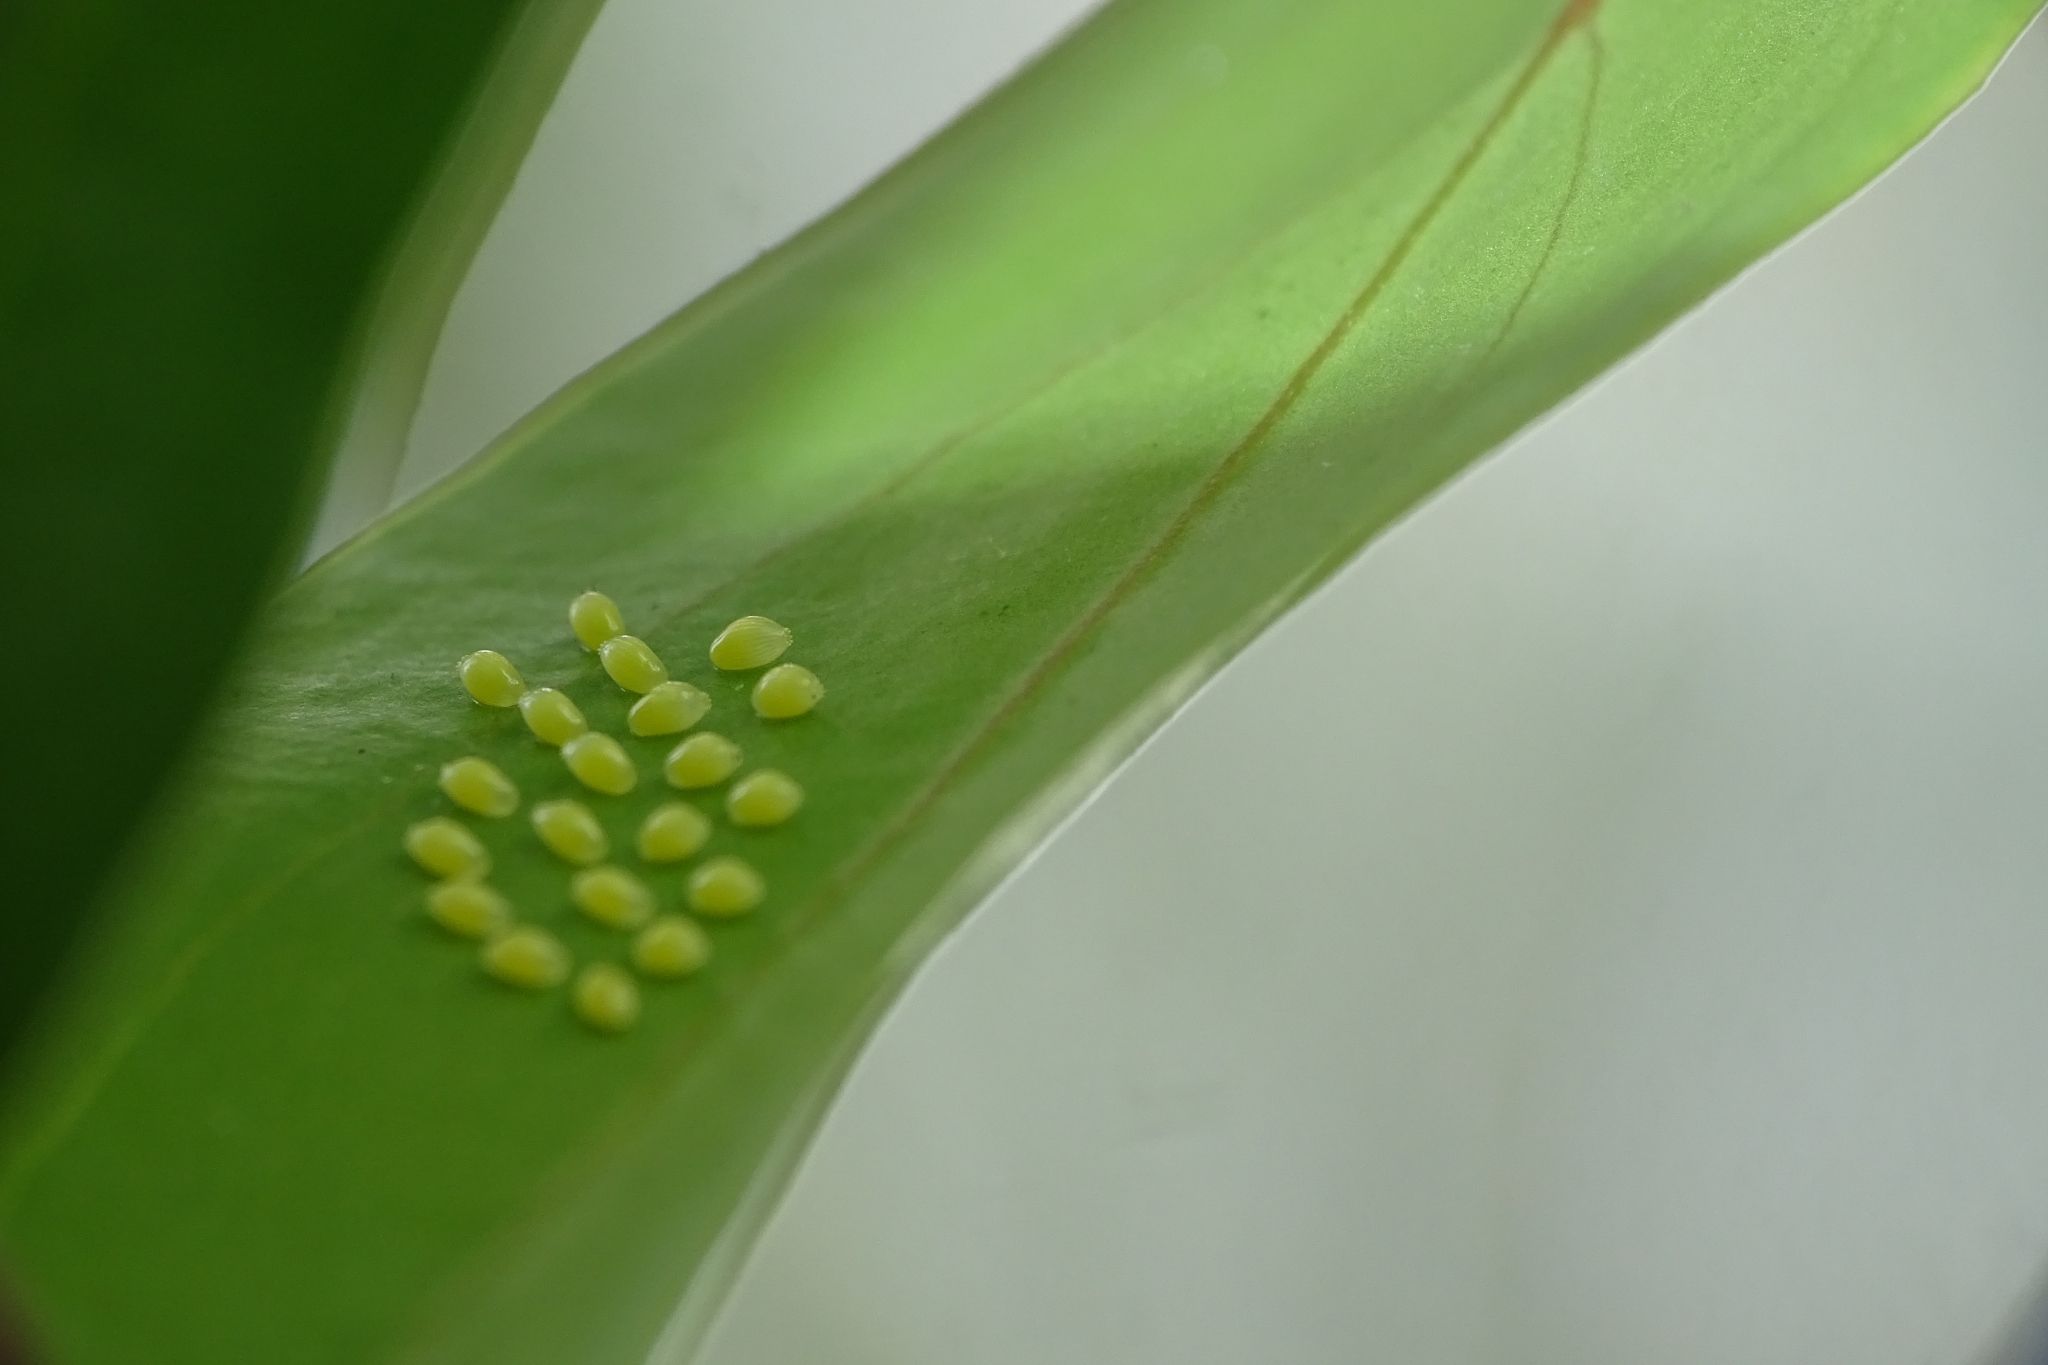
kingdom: Animalia
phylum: Arthropoda
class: Insecta
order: Lepidoptera
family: Pieridae
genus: Delias
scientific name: Delias eucharis
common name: Common jezebel
